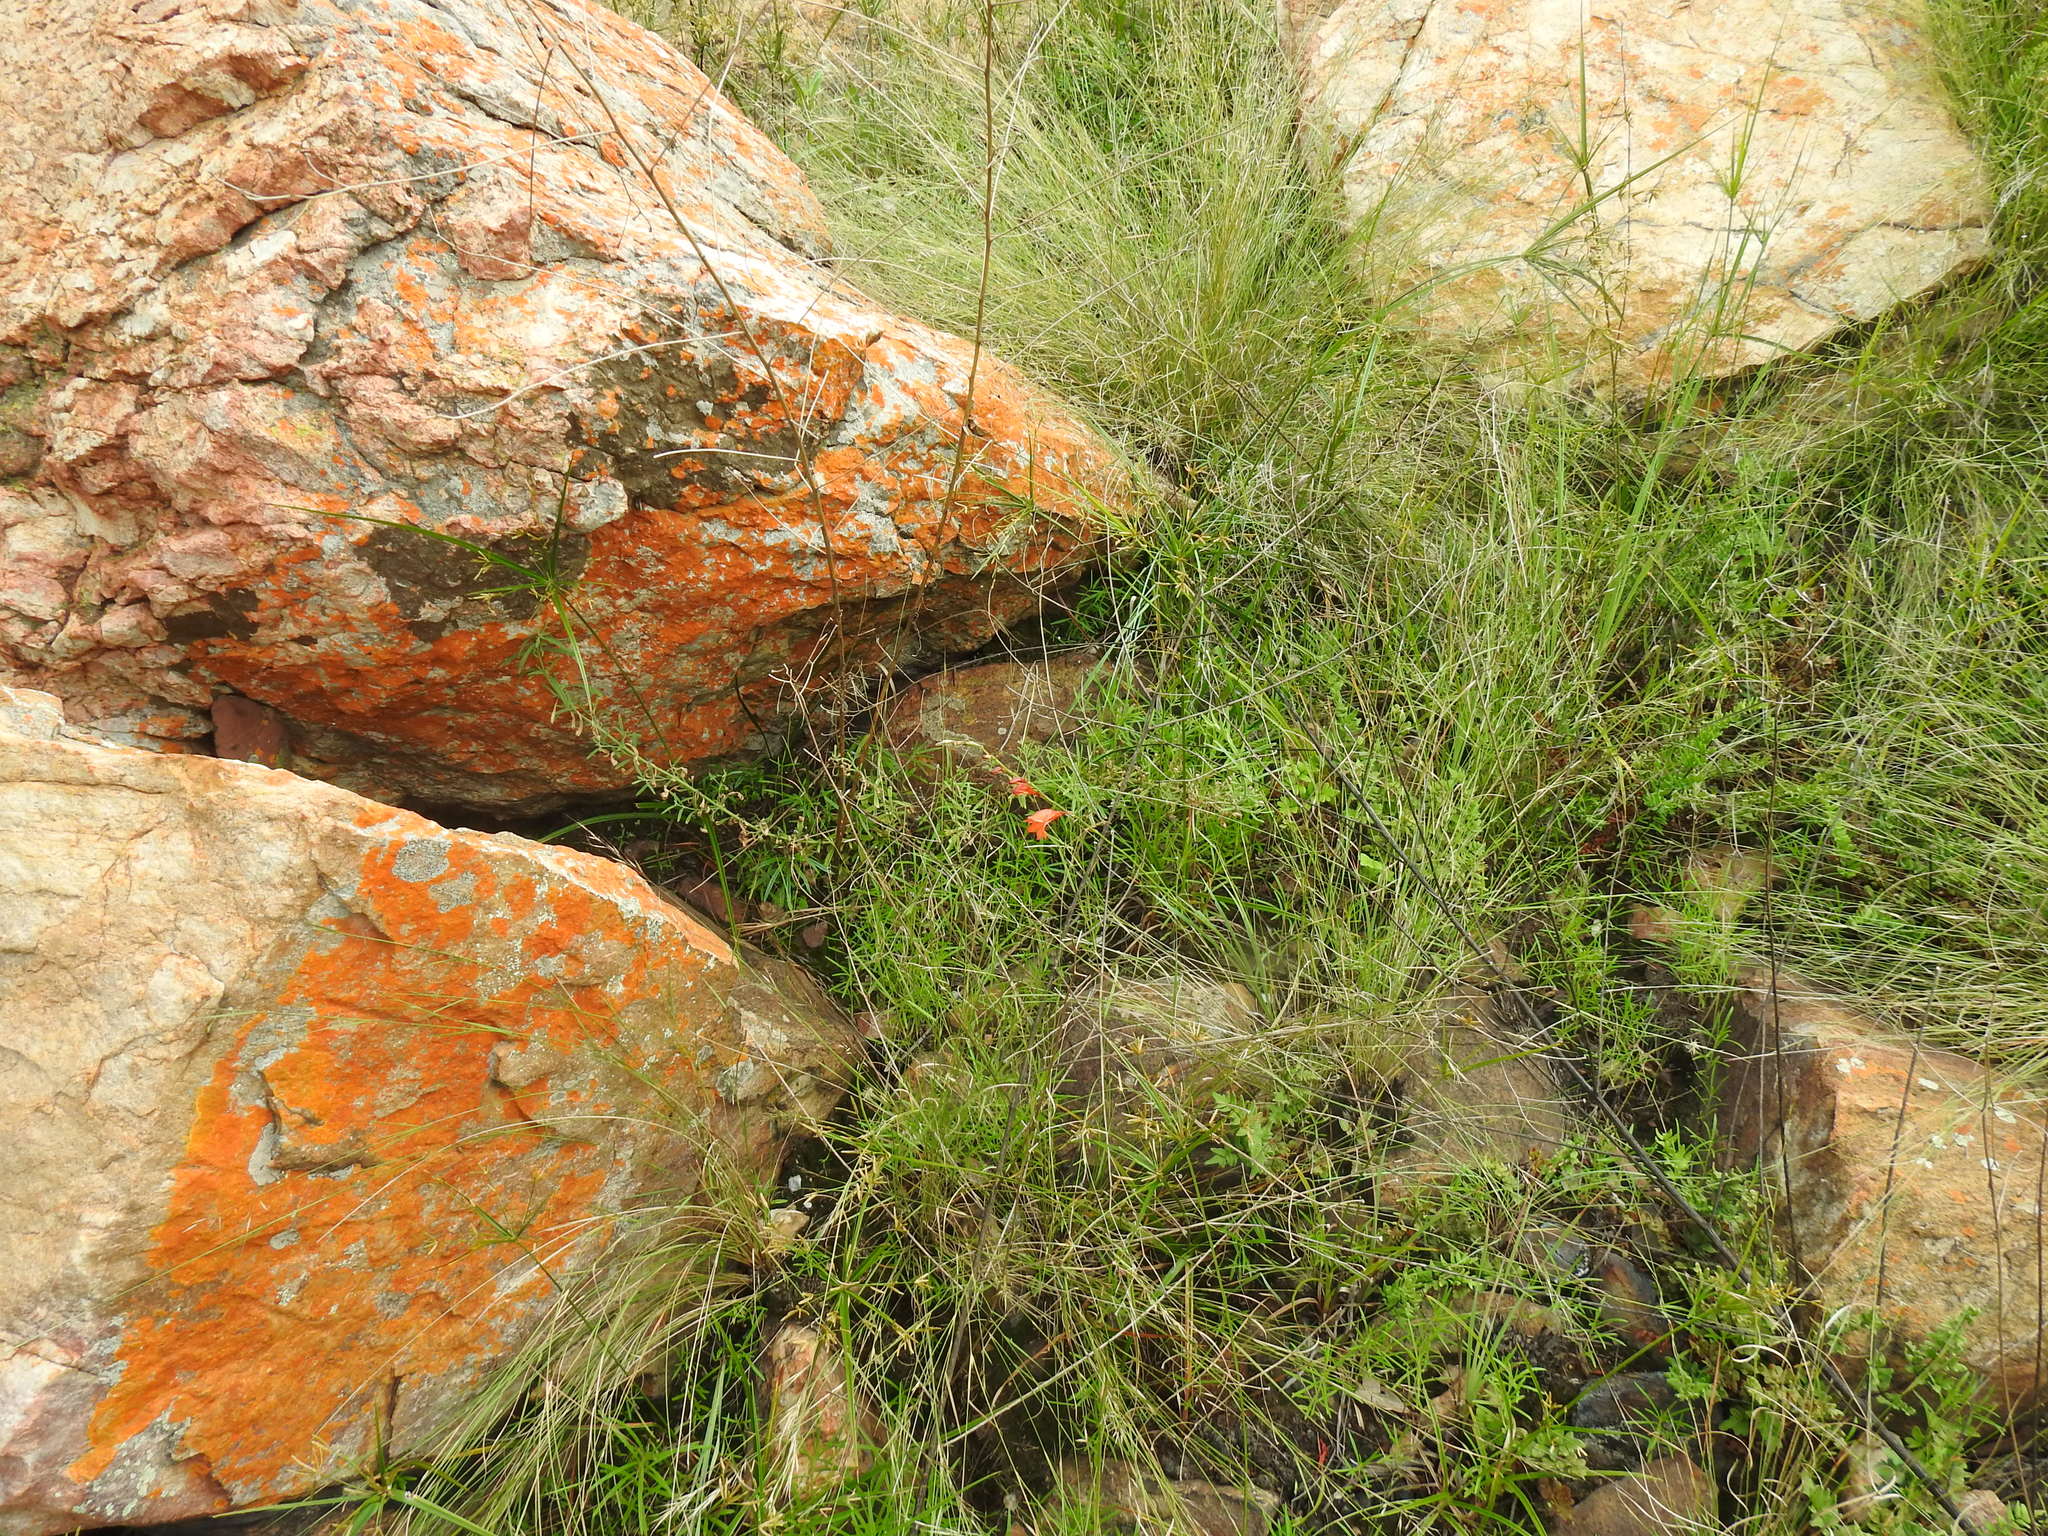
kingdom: Plantae
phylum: Tracheophyta
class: Liliopsida
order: Asparagales
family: Iridaceae
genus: Tritonia
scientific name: Tritonia nelsonii
